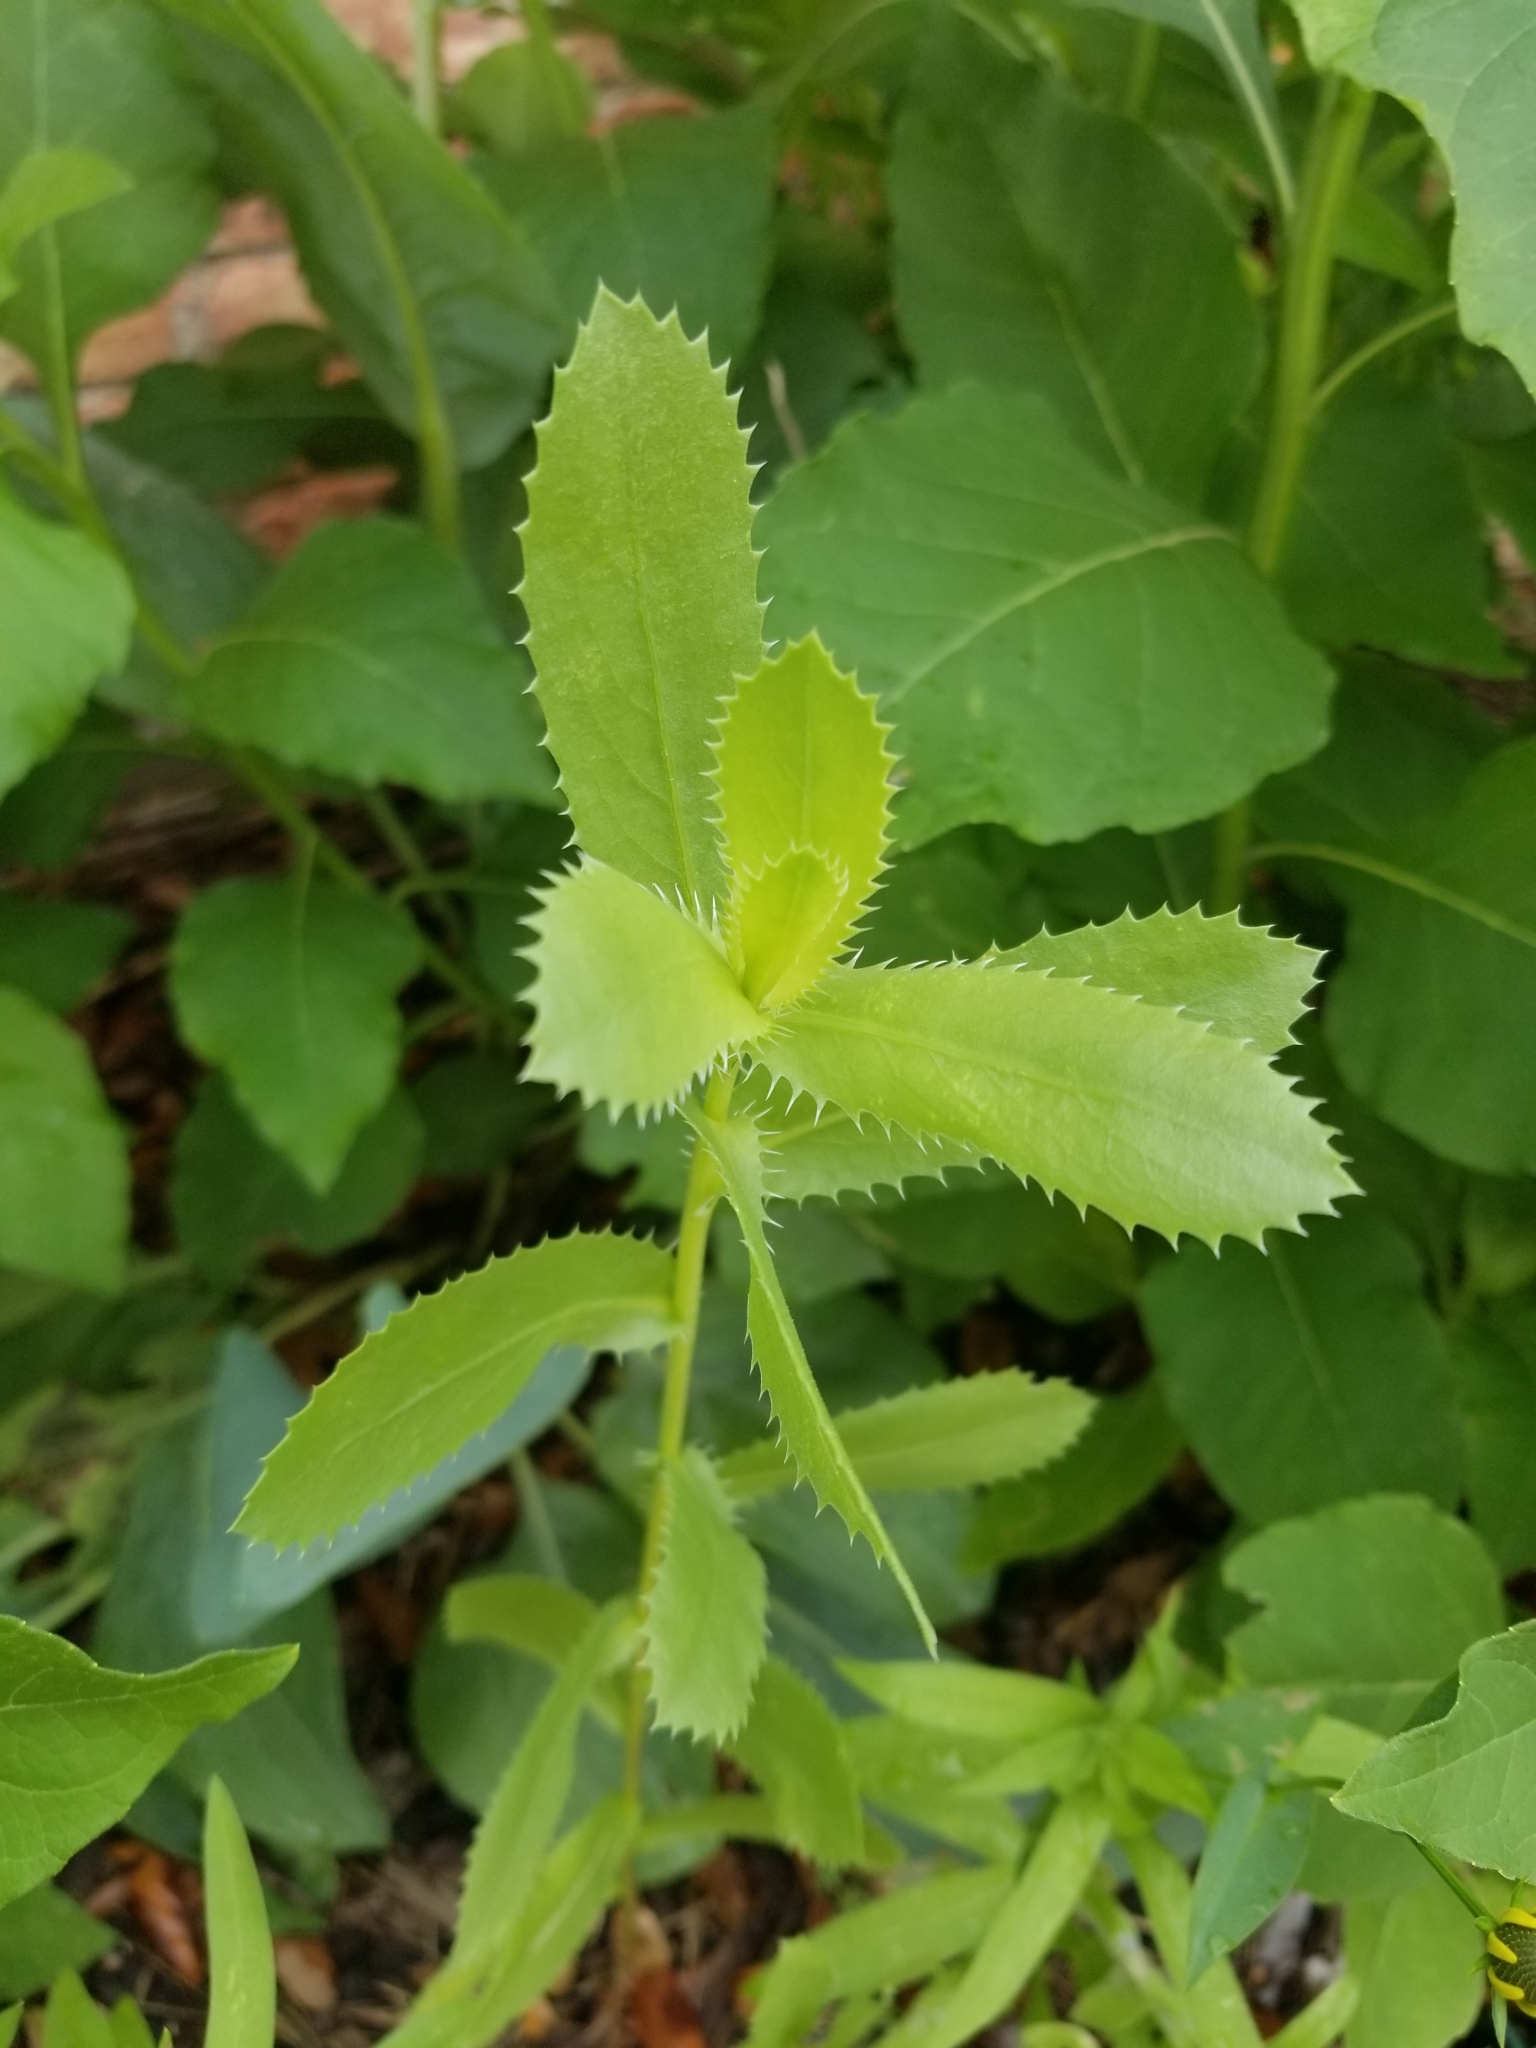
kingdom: Plantae
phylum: Tracheophyta
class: Magnoliopsida
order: Asterales
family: Asteraceae
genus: Grindelia
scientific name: Grindelia ciliata
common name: Goldenweed
